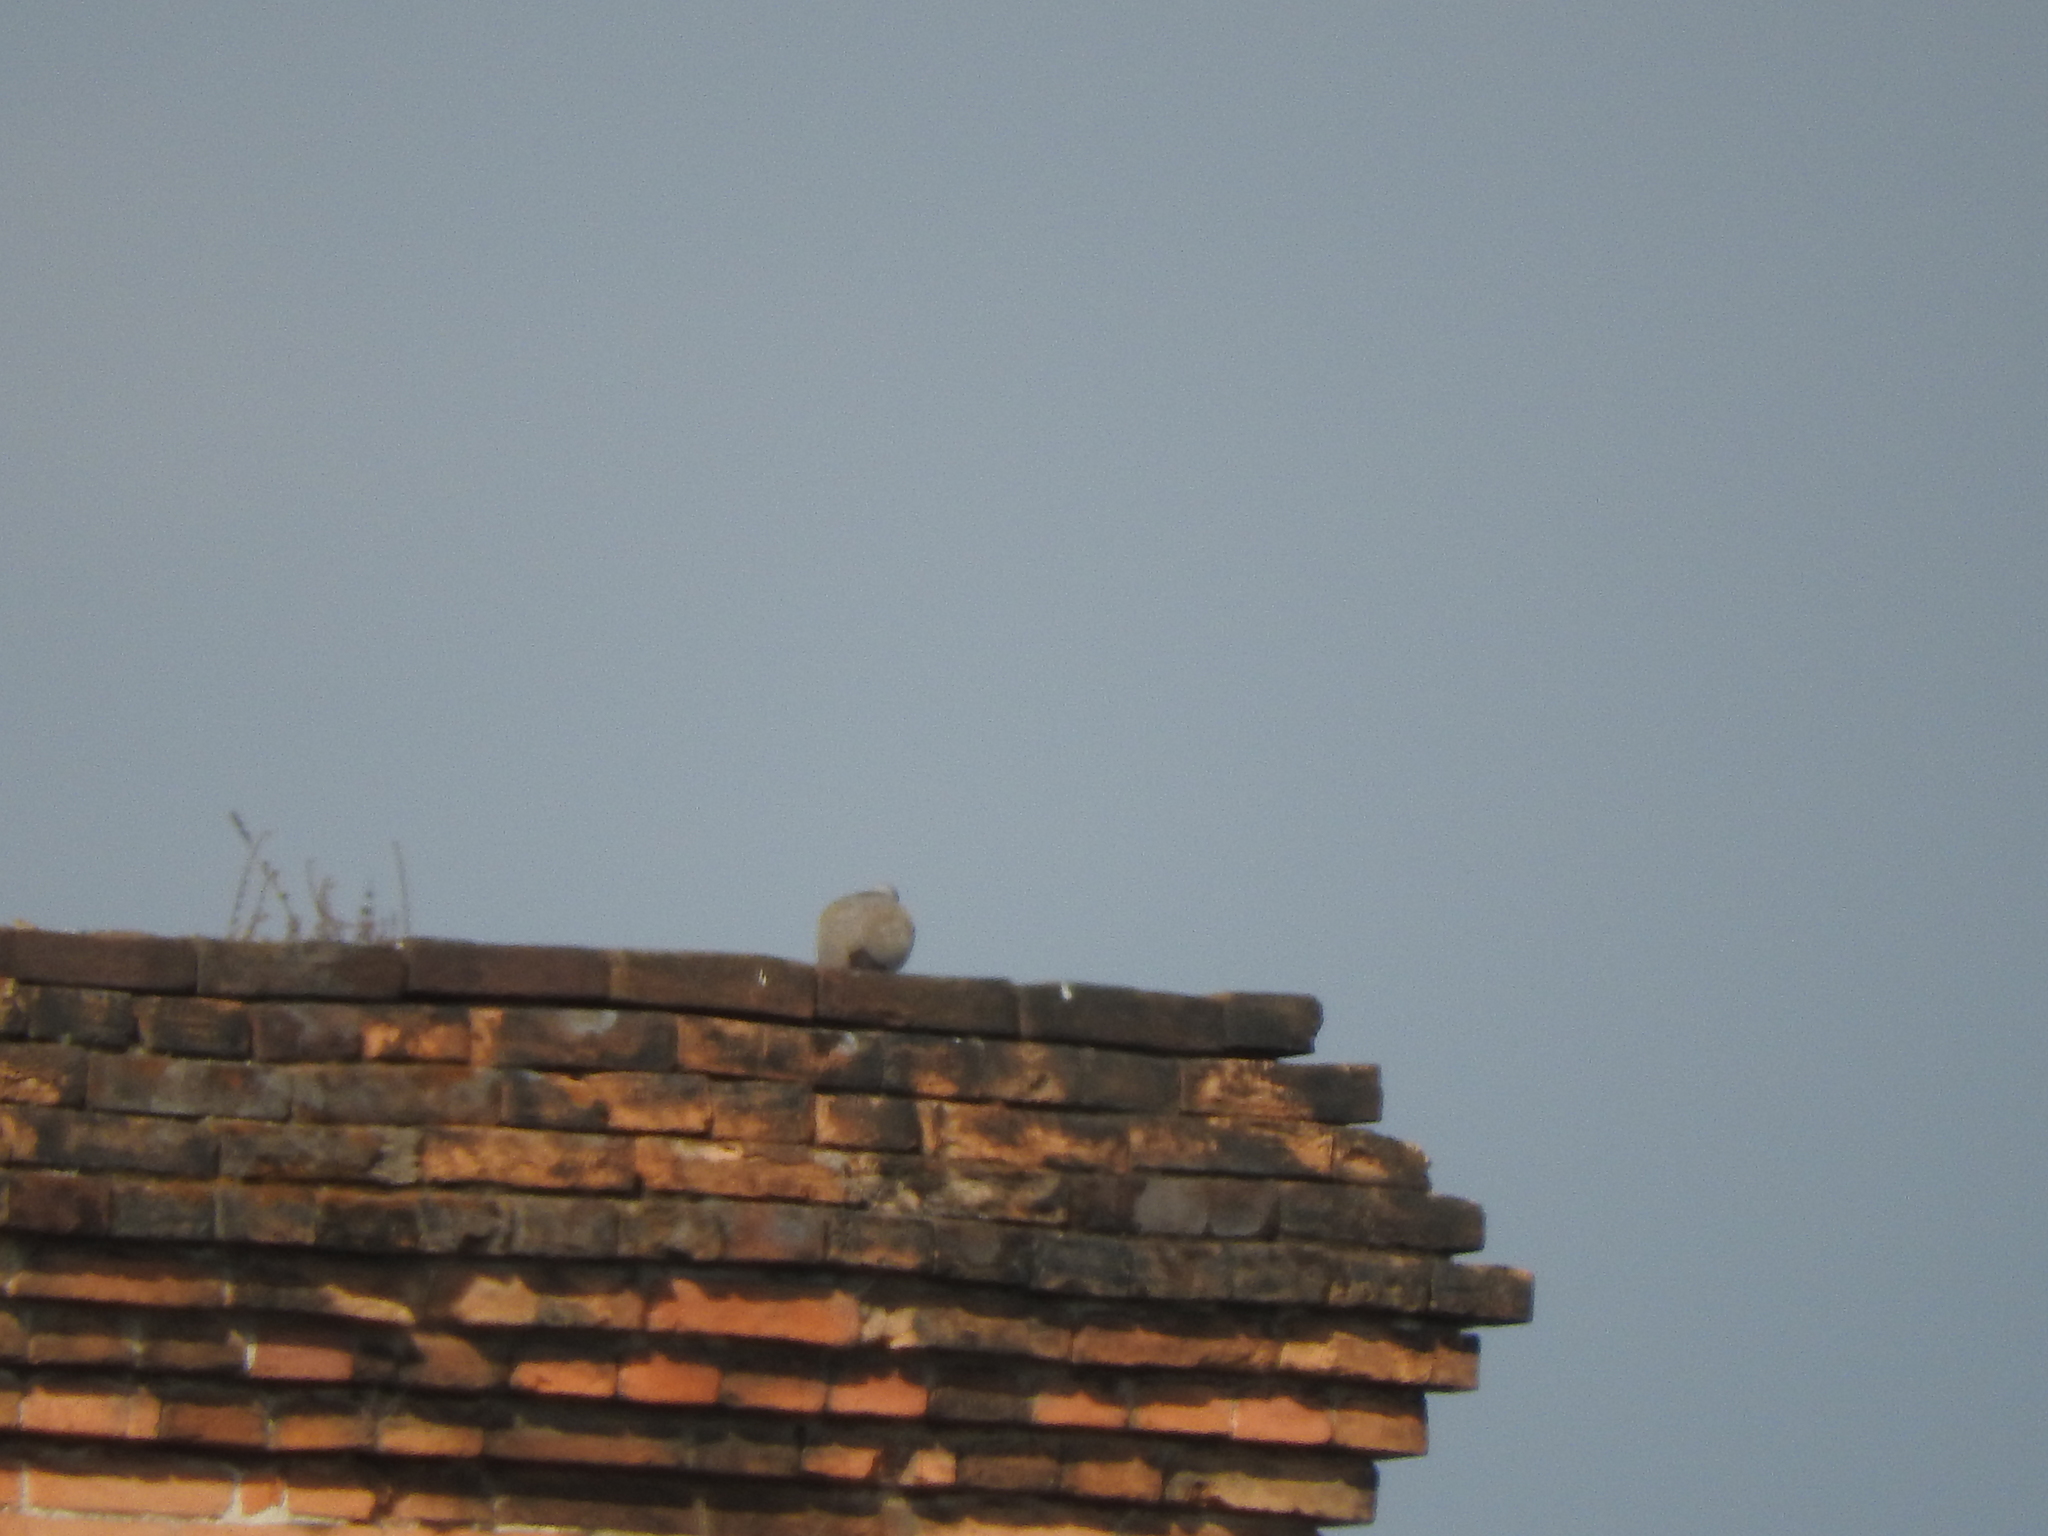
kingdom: Animalia
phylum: Chordata
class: Aves
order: Columbiformes
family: Columbidae
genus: Streptopelia
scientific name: Streptopelia decaocto
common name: Eurasian collared dove
